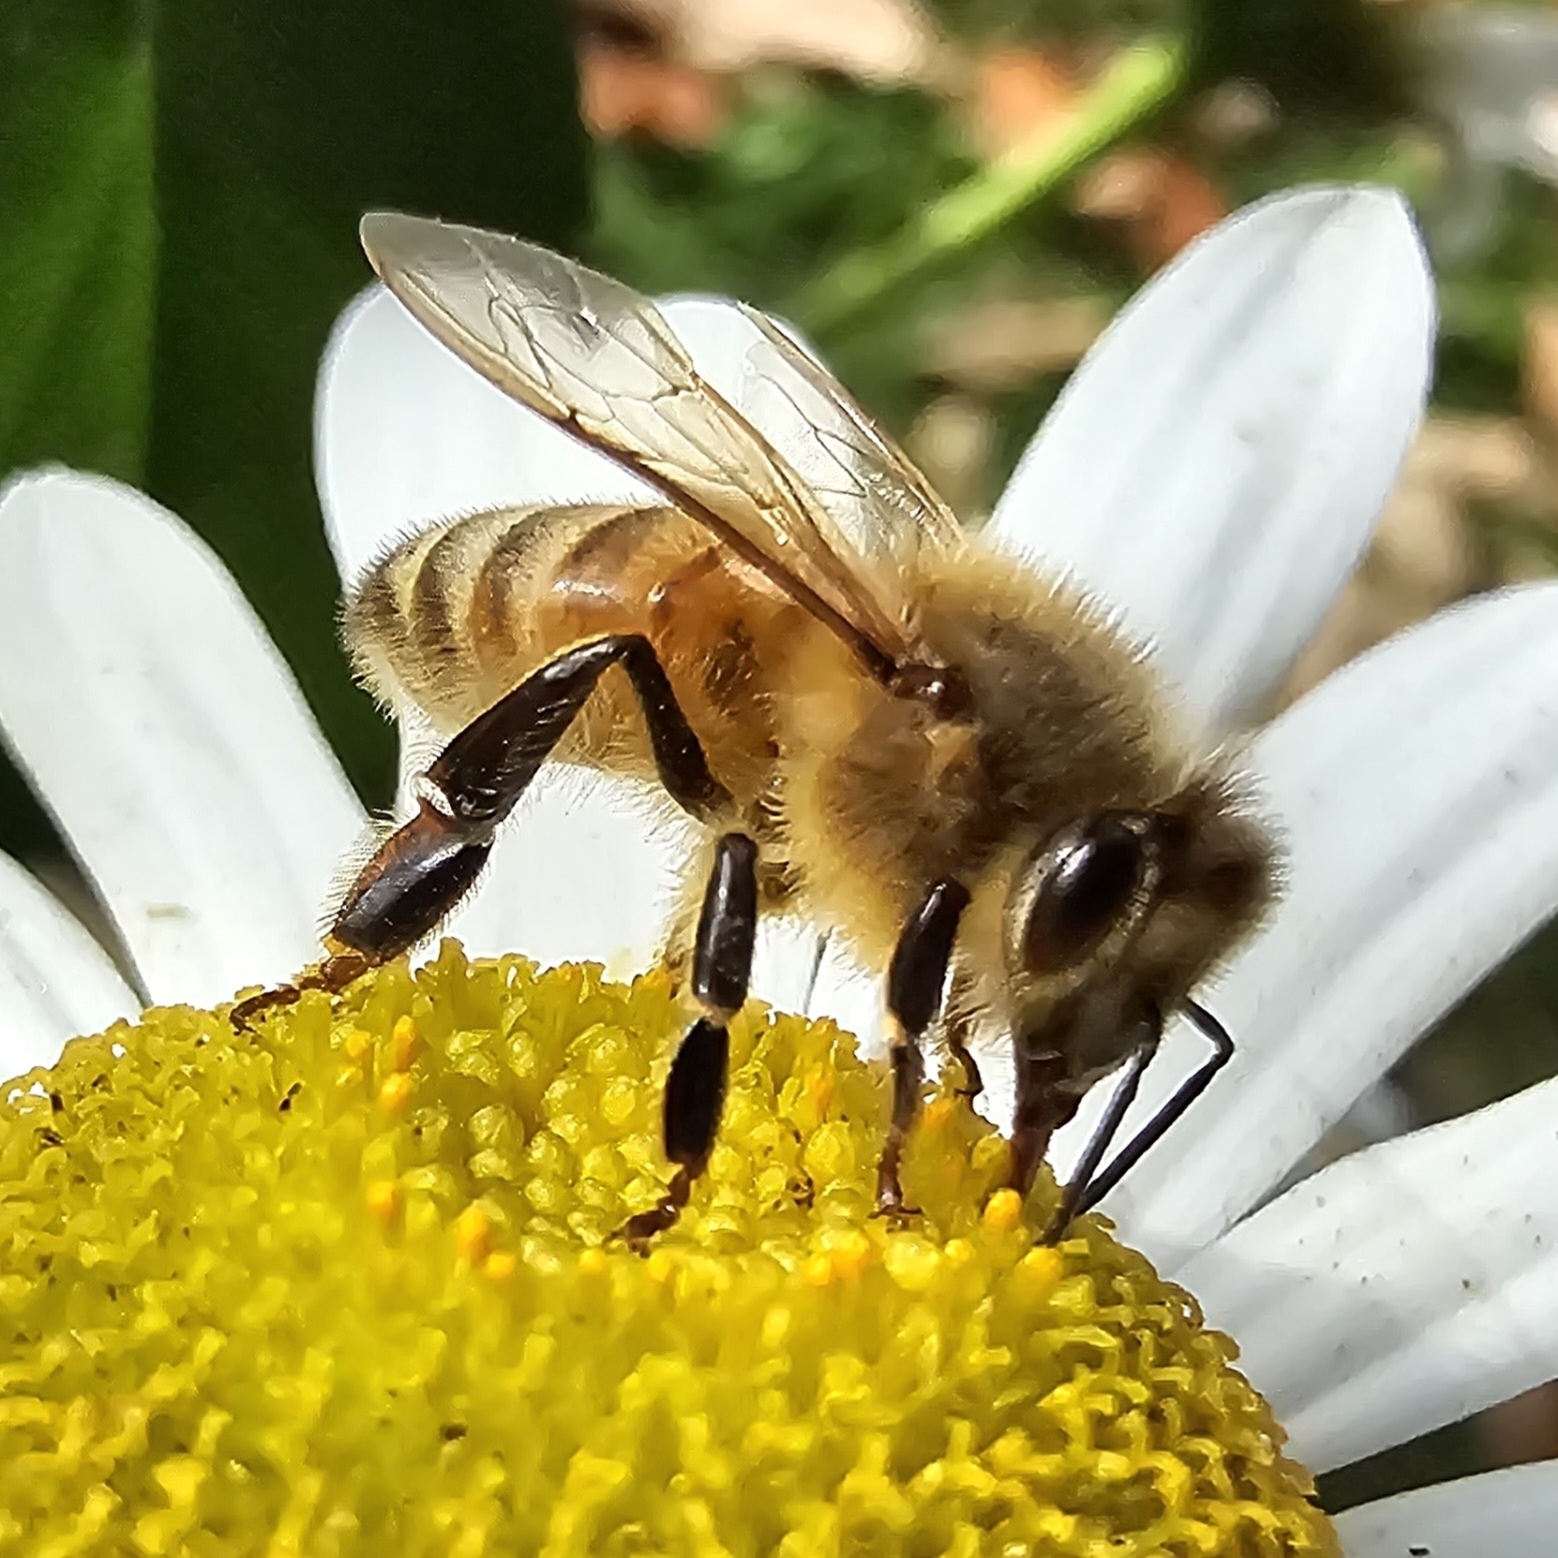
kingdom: Animalia
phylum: Arthropoda
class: Insecta
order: Hymenoptera
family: Apidae
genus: Apis
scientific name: Apis mellifera
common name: Honey bee
